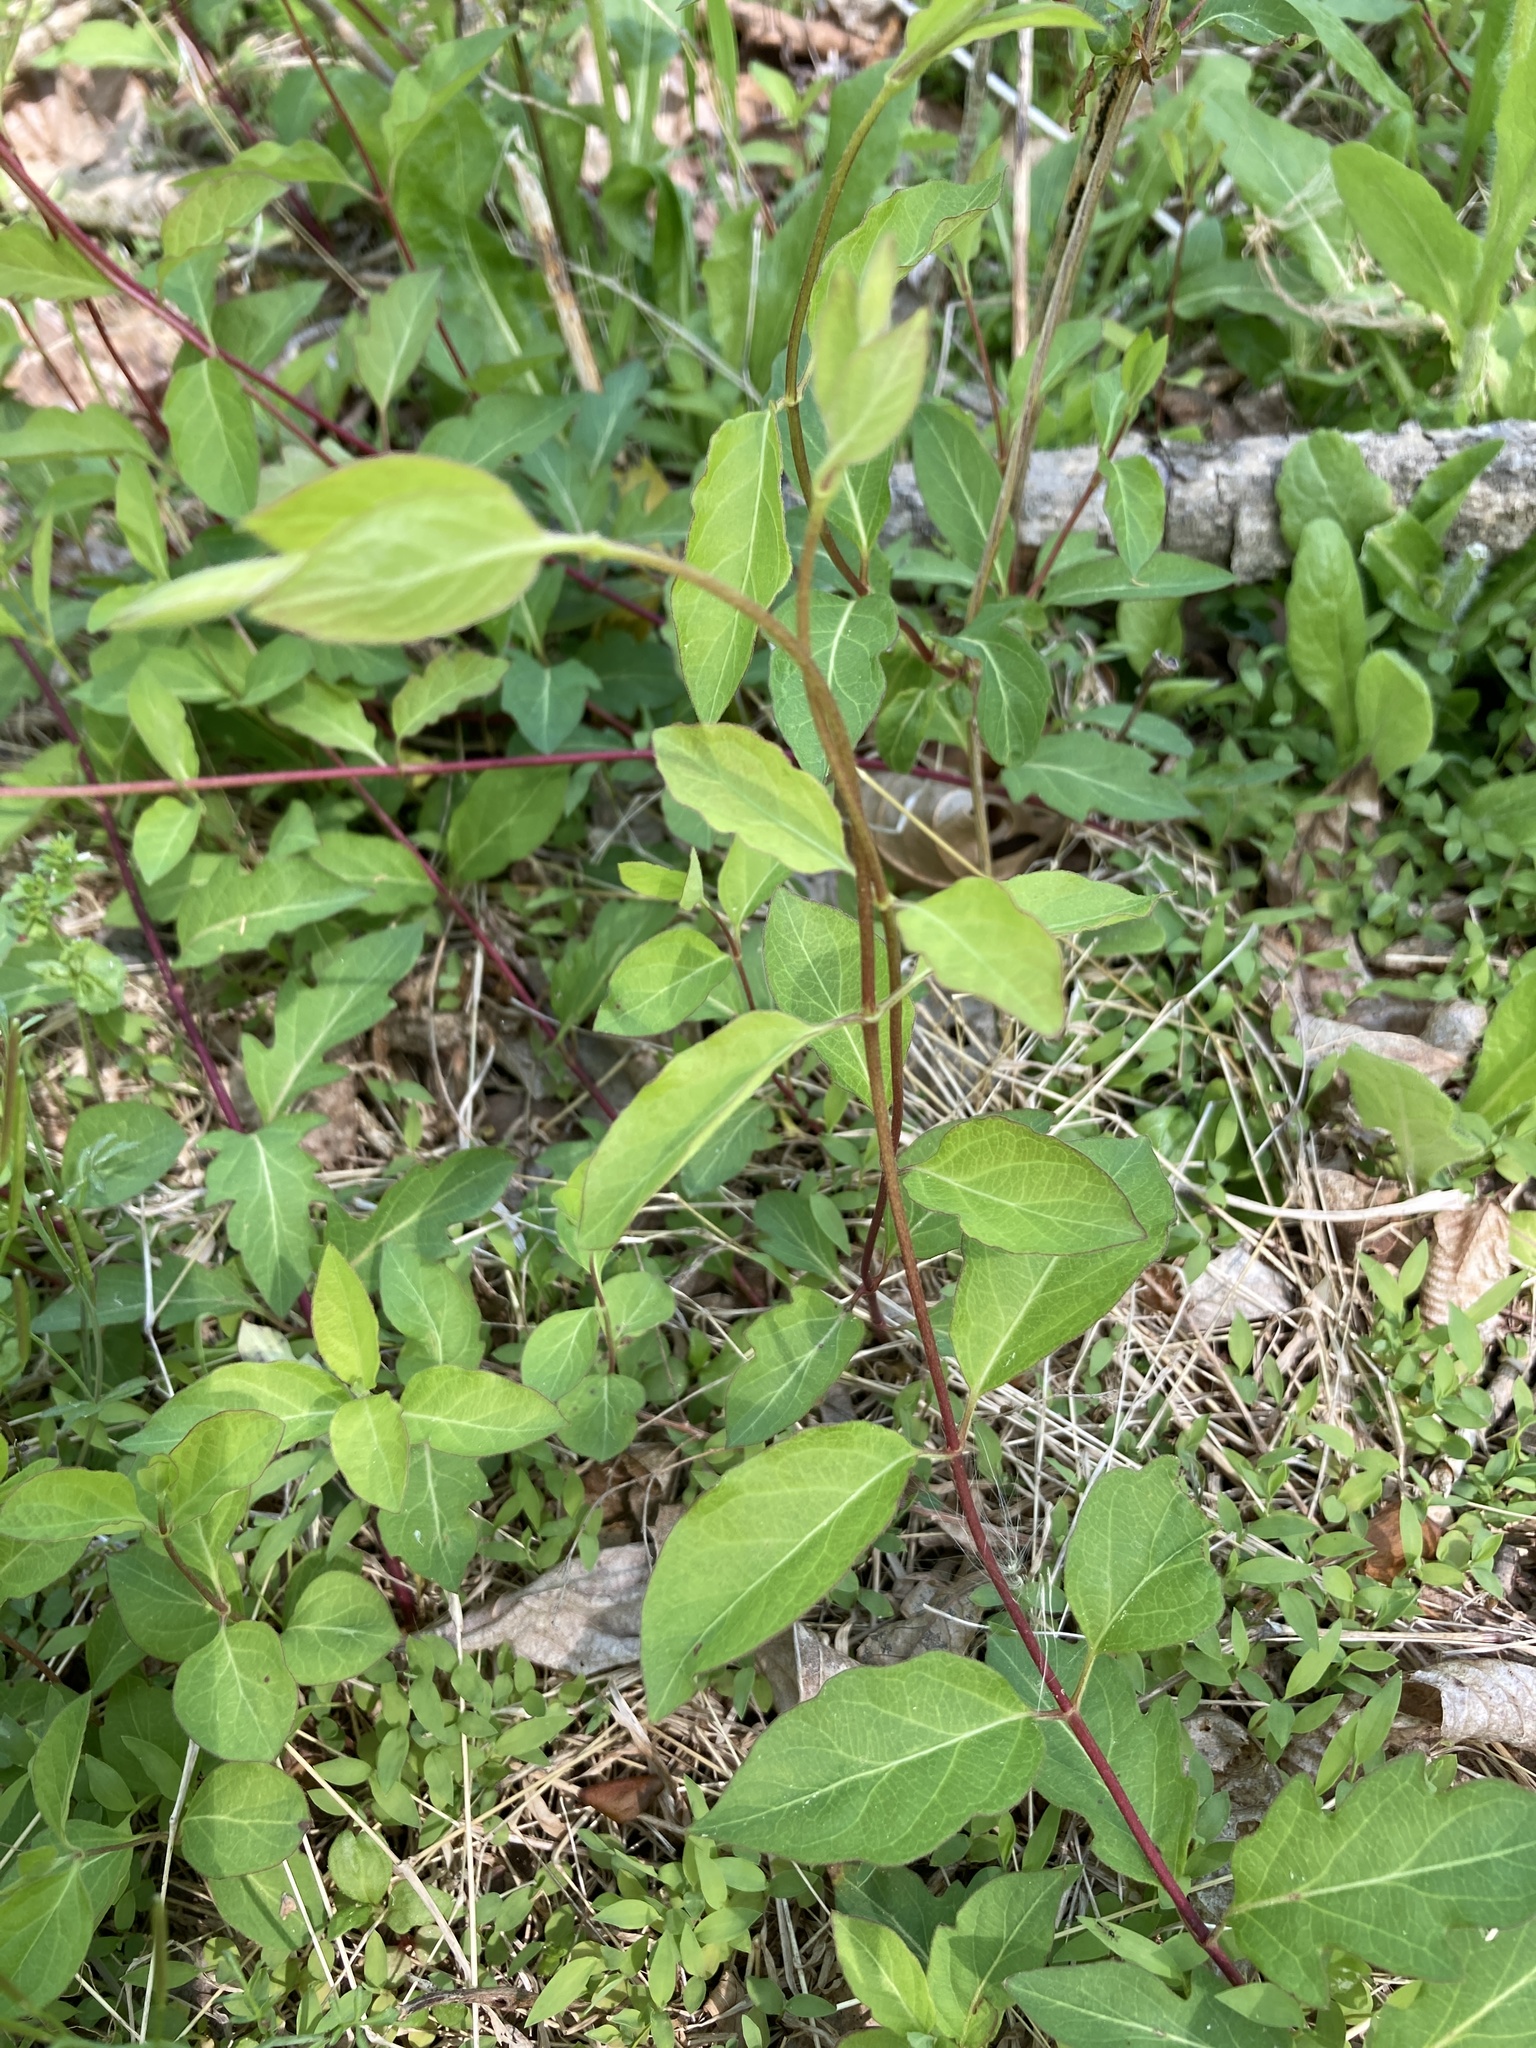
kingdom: Plantae
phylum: Tracheophyta
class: Magnoliopsida
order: Dipsacales
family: Caprifoliaceae
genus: Lonicera
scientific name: Lonicera japonica
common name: Japanese honeysuckle
